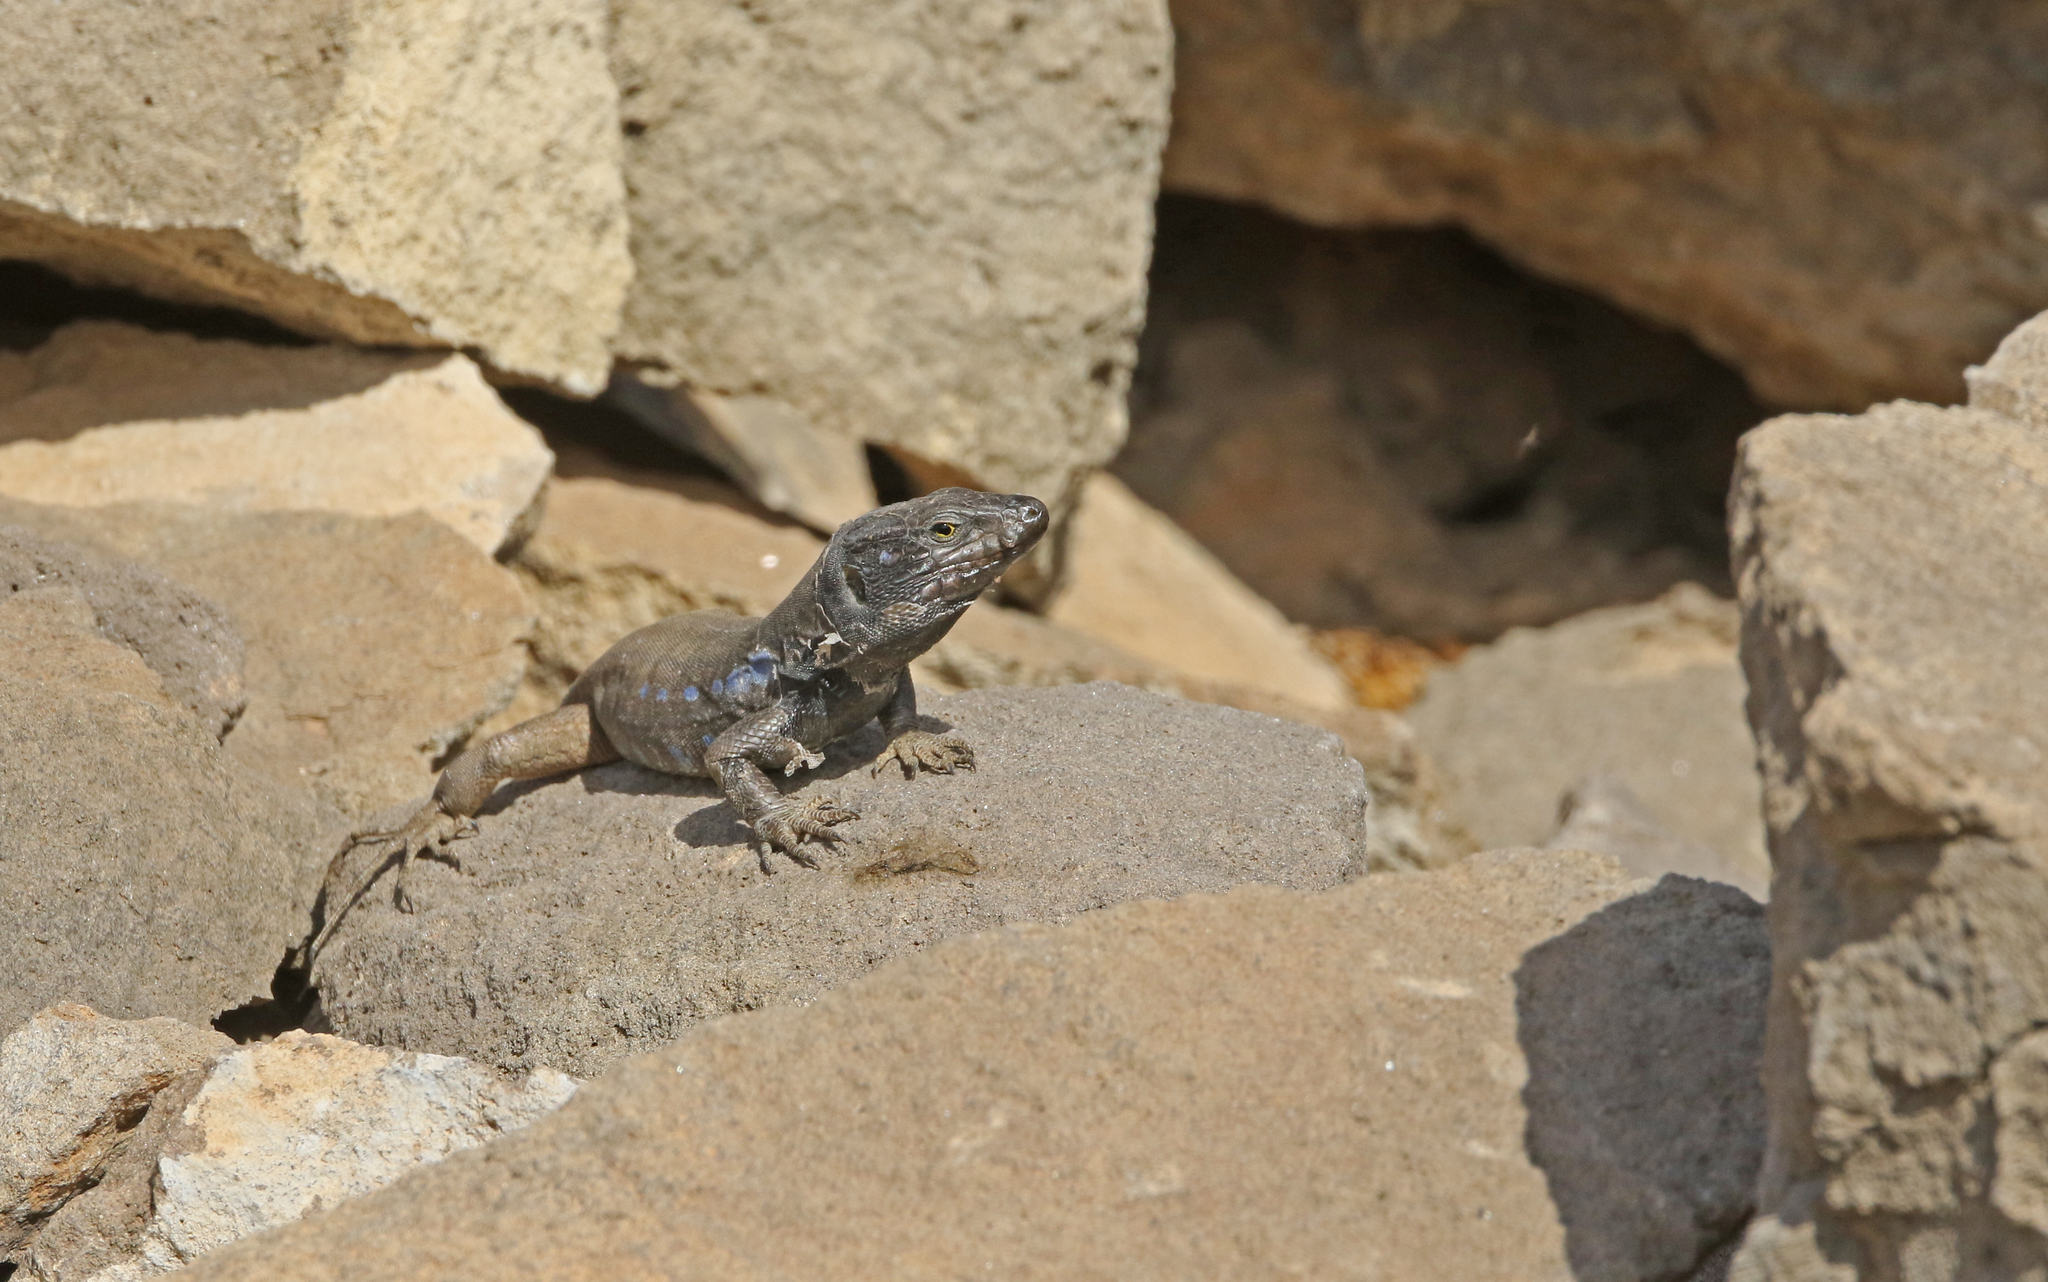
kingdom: Animalia
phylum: Chordata
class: Squamata
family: Lacertidae
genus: Gallotia
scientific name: Gallotia galloti
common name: Gallot's lizard
